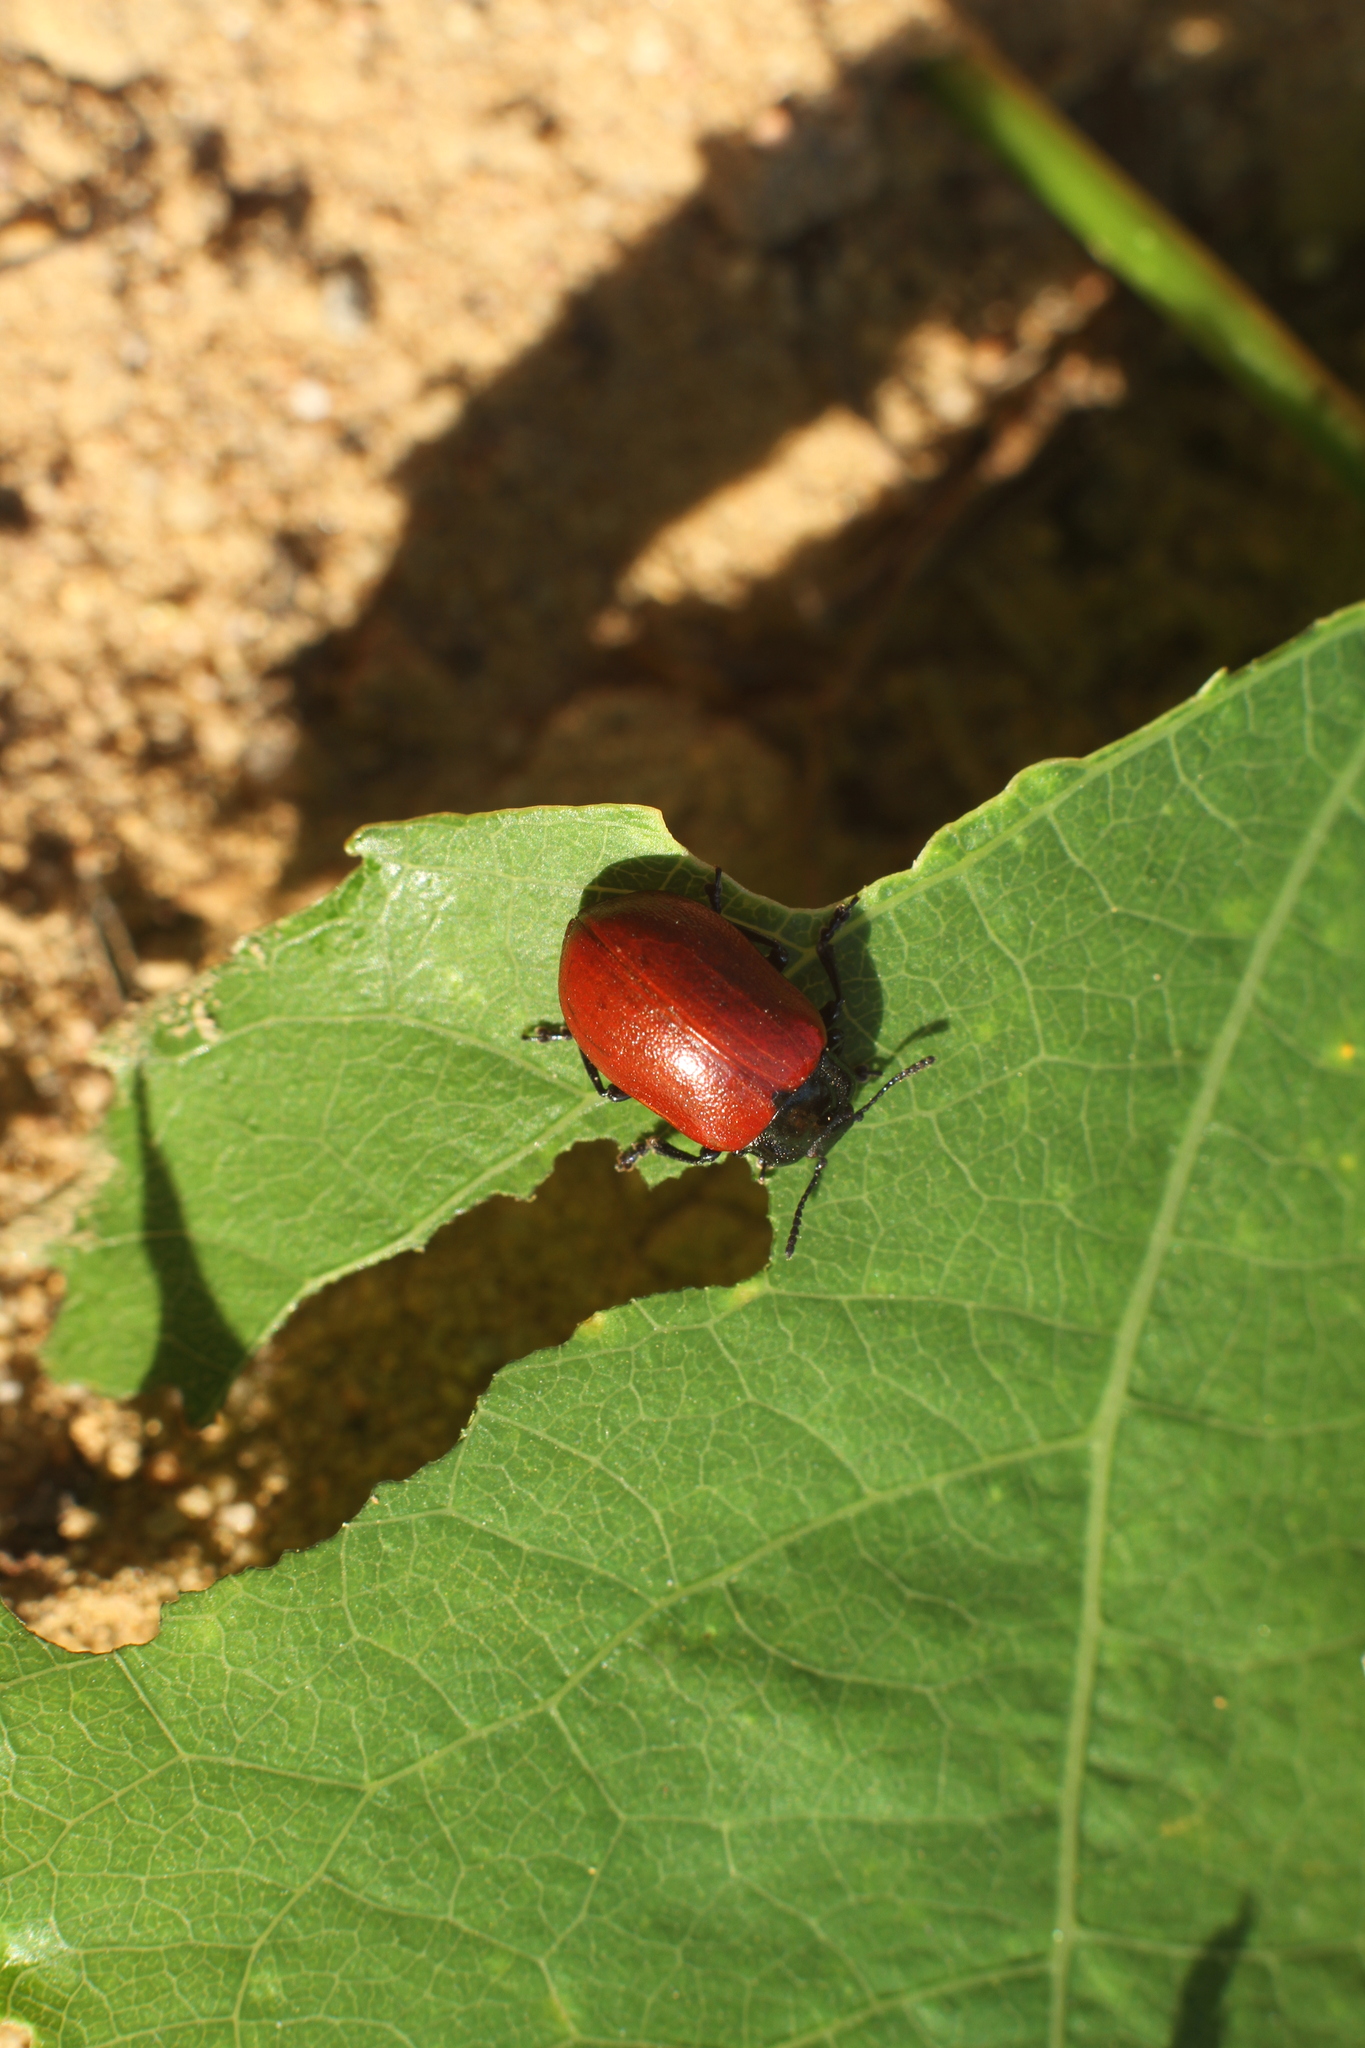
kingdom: Animalia
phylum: Arthropoda
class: Insecta
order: Coleoptera
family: Chrysomelidae
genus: Chrysomela
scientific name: Chrysomela populi
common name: Red poplar leaf beetle
